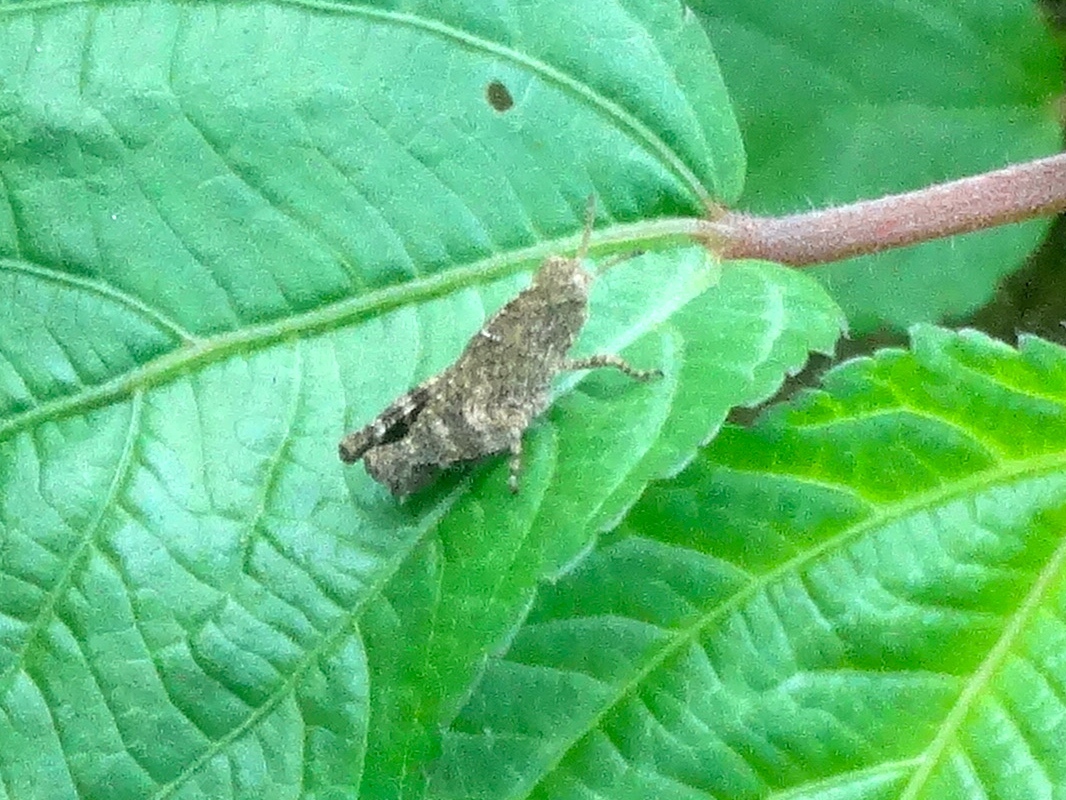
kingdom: Animalia
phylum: Arthropoda
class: Insecta
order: Orthoptera
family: Acrididae
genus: Lactista
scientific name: Lactista elota
